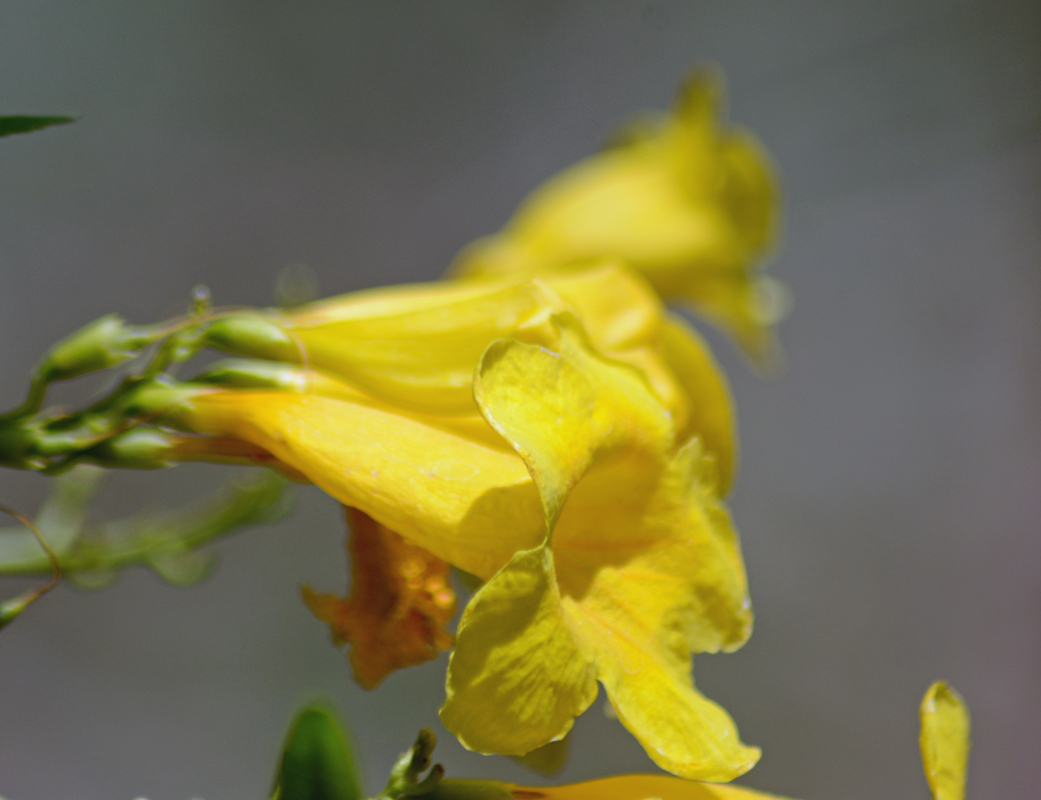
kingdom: Plantae
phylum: Tracheophyta
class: Magnoliopsida
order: Lamiales
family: Bignoniaceae
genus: Tecoma
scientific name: Tecoma stans
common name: Yellow trumpetbush
